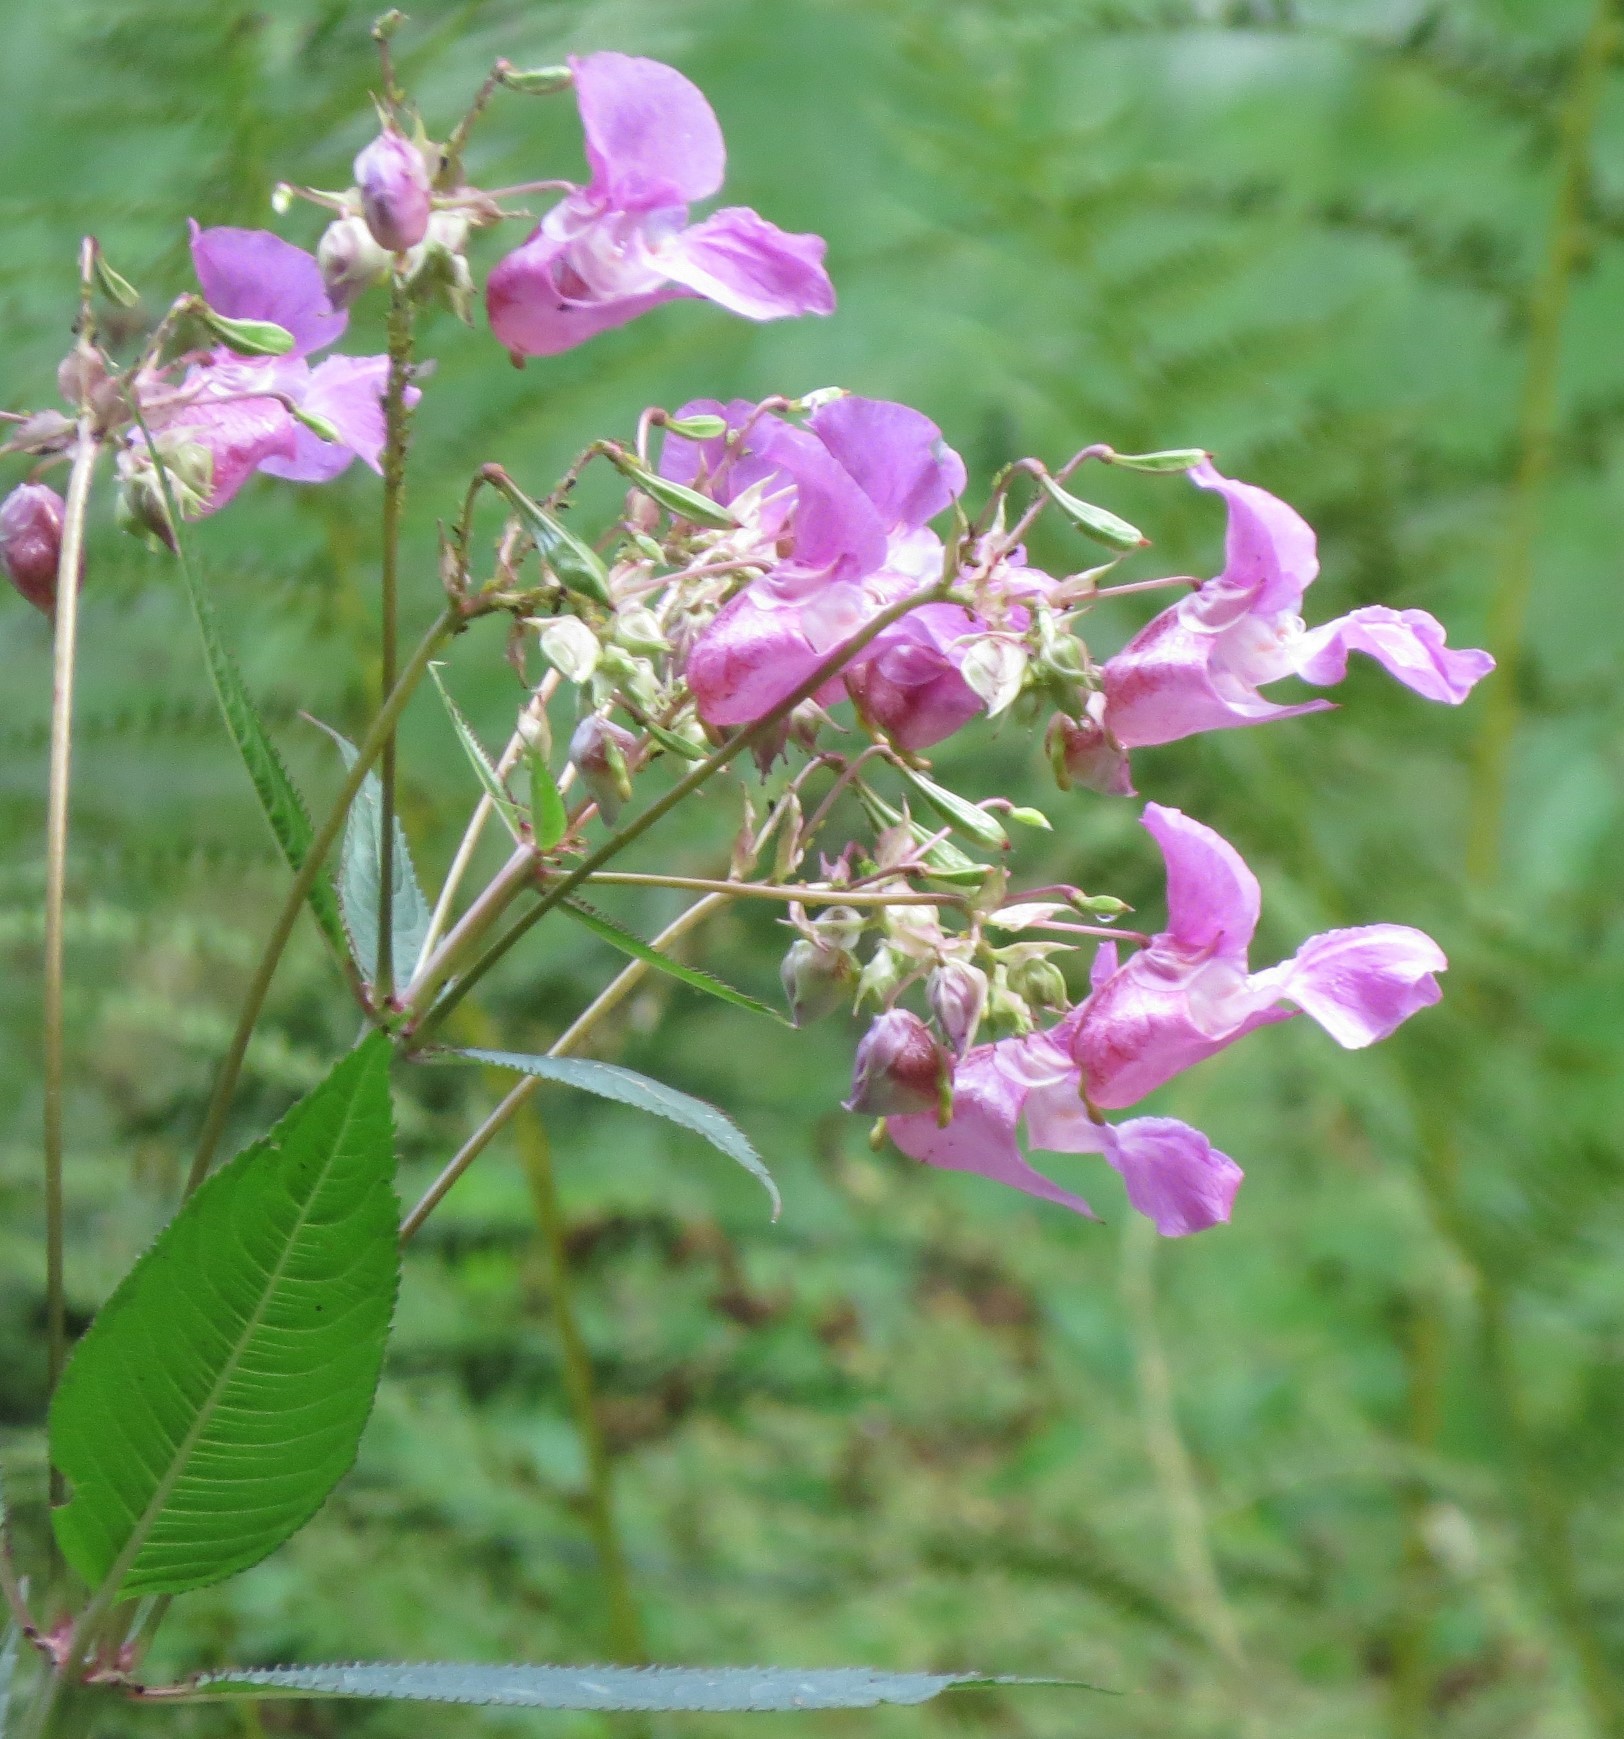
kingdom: Plantae
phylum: Tracheophyta
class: Magnoliopsida
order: Ericales
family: Balsaminaceae
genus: Impatiens
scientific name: Impatiens glandulifera
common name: Himalayan balsam
